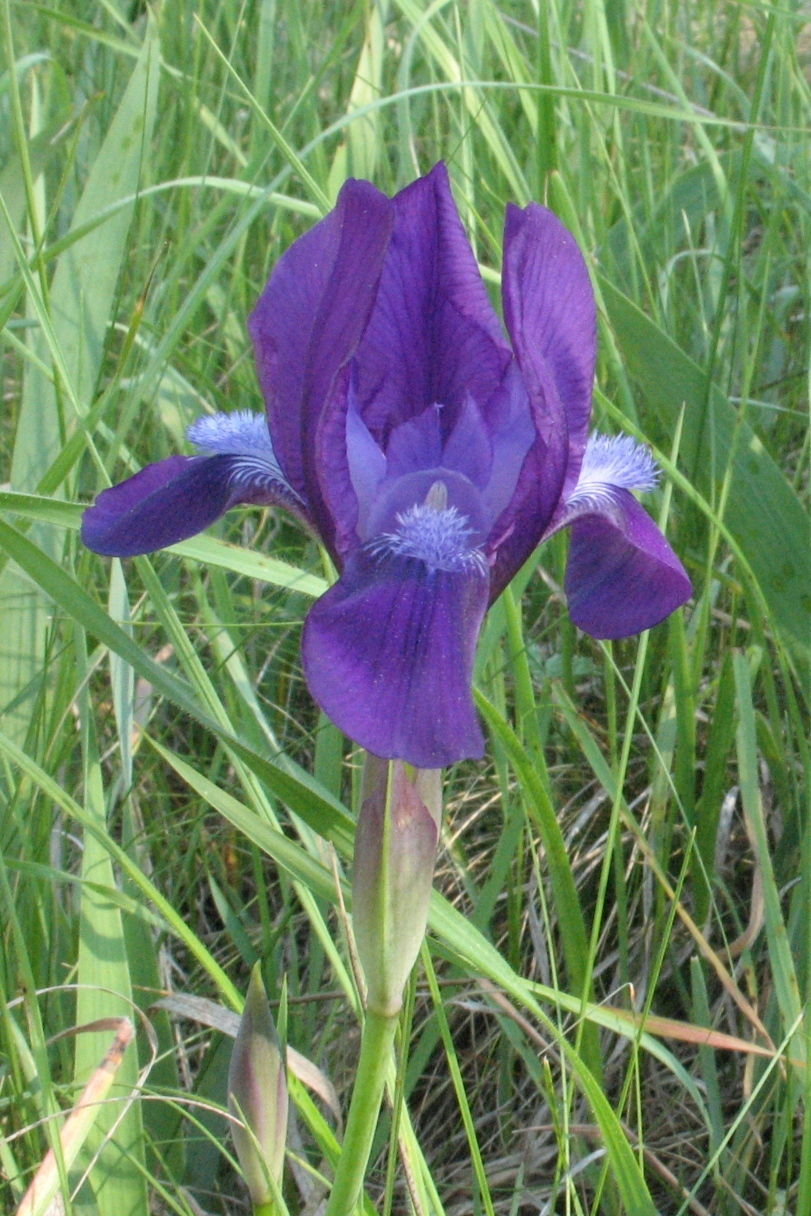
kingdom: Plantae
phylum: Tracheophyta
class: Liliopsida
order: Asparagales
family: Iridaceae
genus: Iris
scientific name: Iris aphylla
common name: Stool iris
